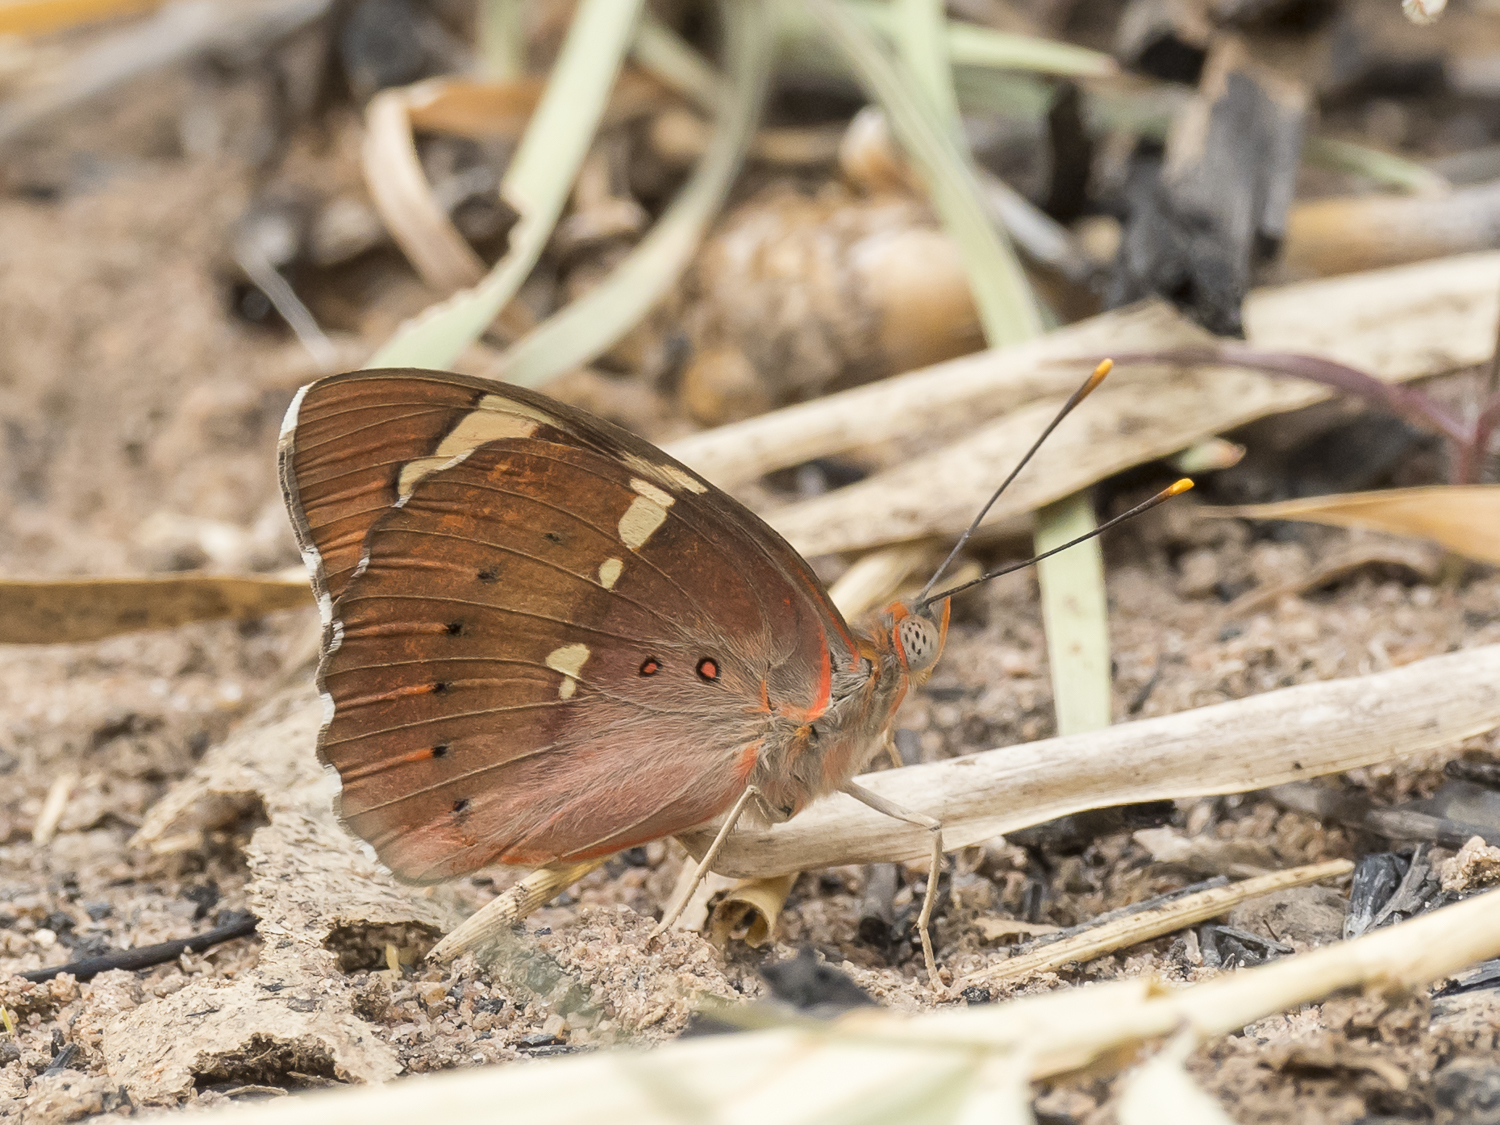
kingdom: Animalia
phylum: Arthropoda
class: Insecta
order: Lepidoptera
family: Nymphalidae
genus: Euthalia
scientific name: Euthalia nais
